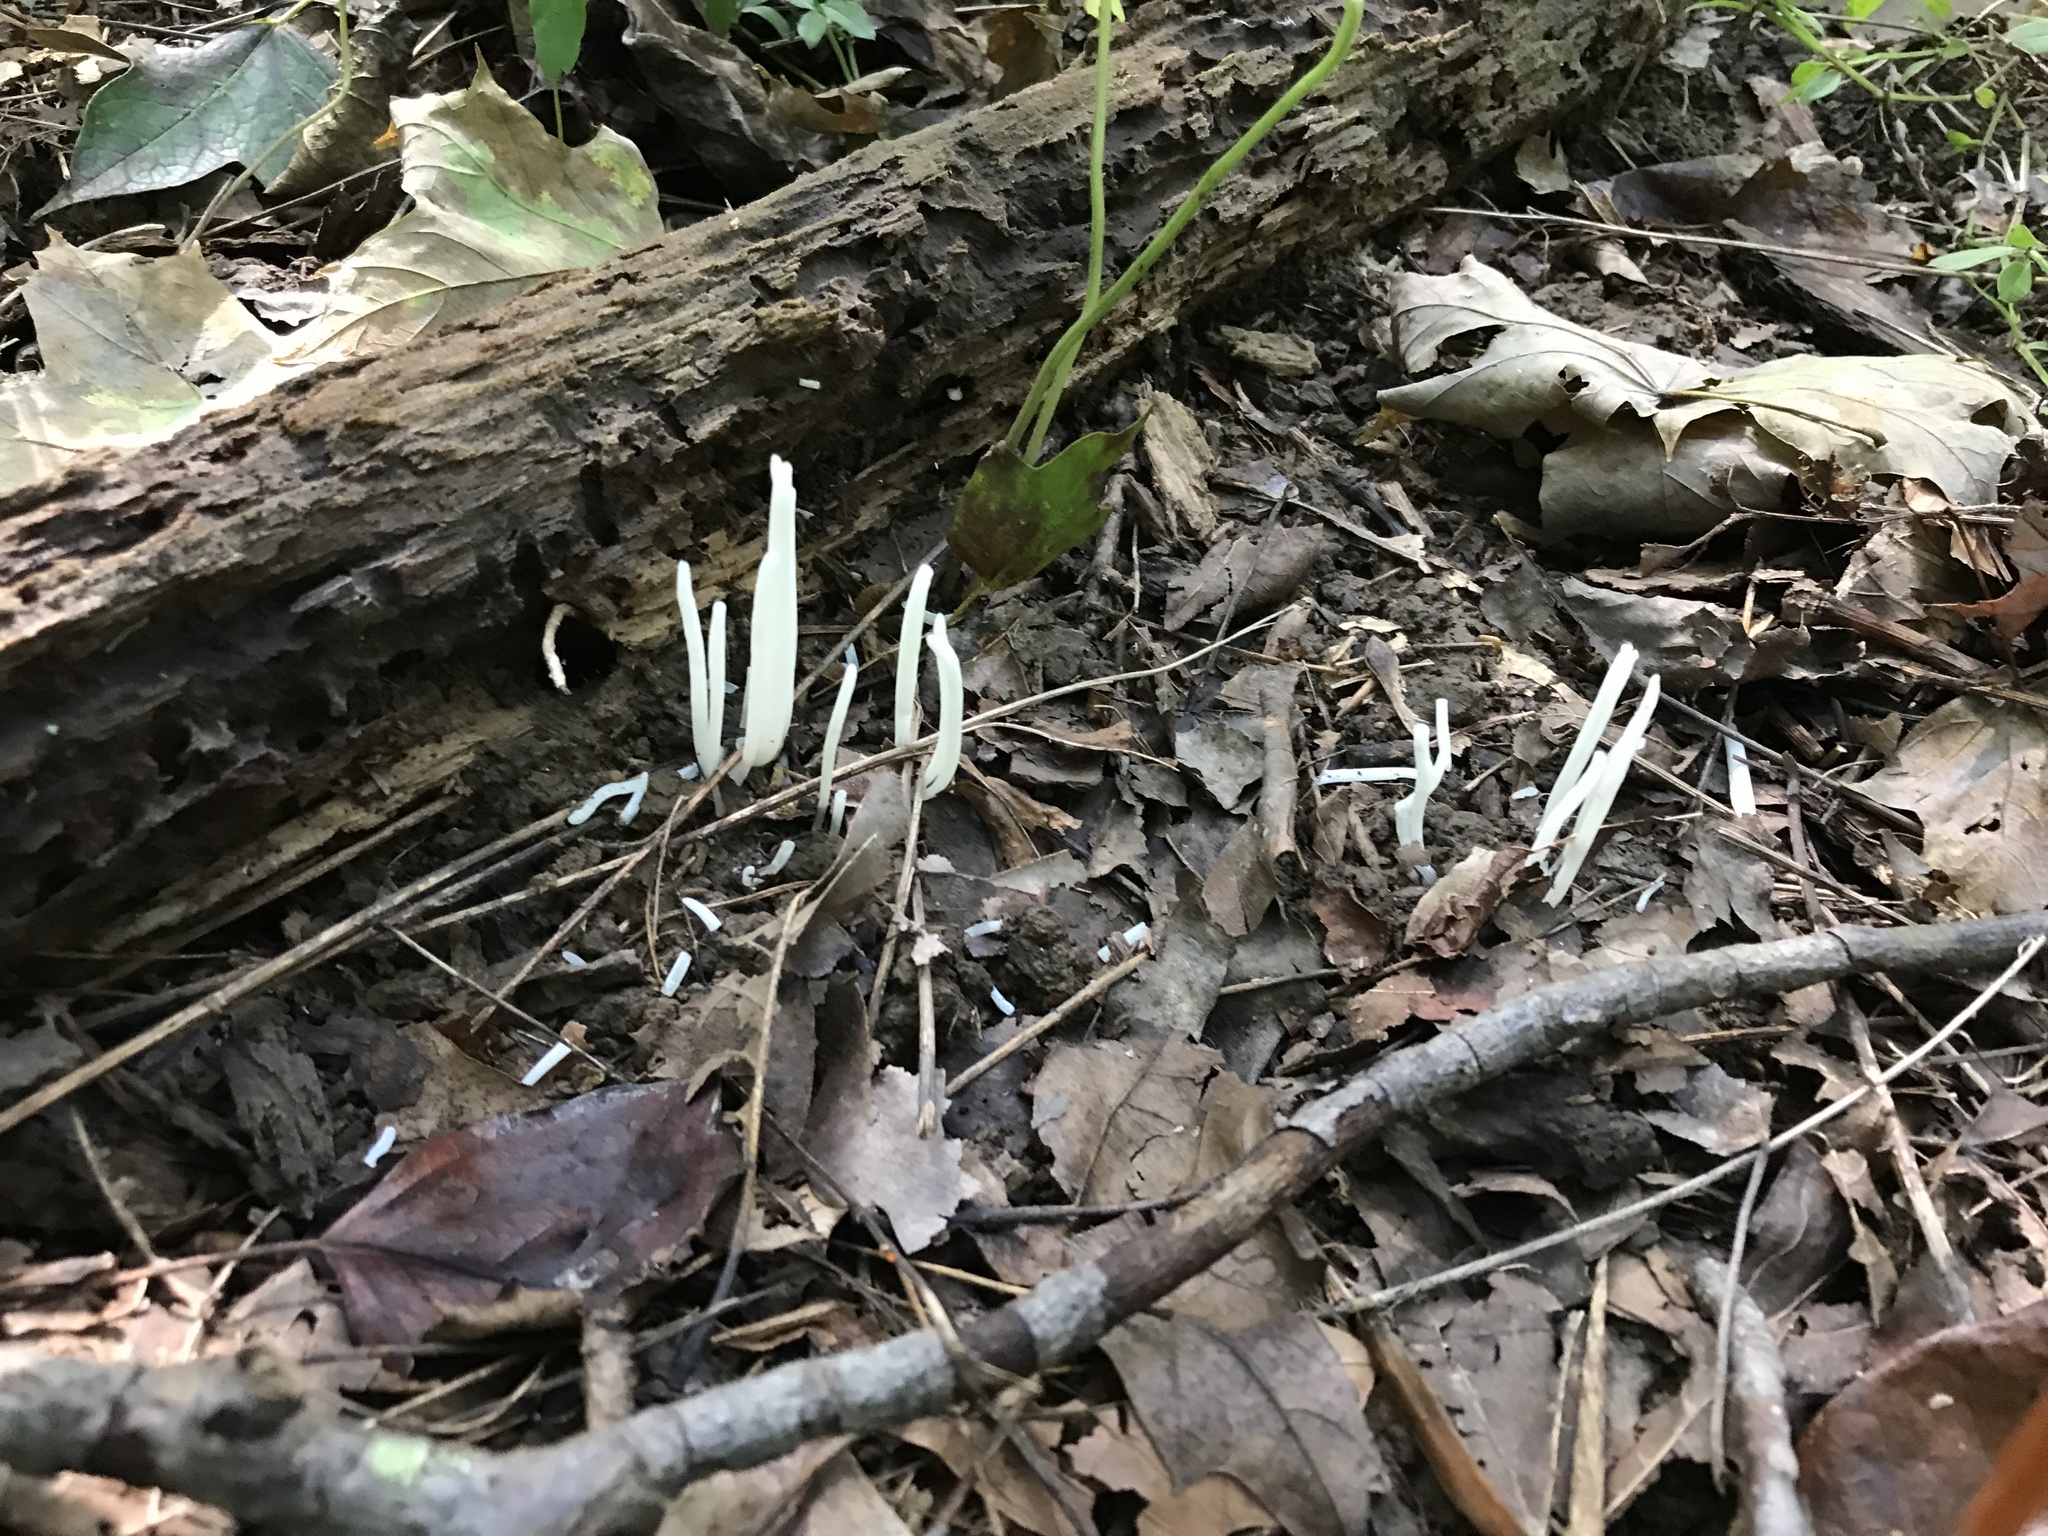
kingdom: Fungi
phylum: Basidiomycota
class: Agaricomycetes
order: Agaricales
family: Clavariaceae
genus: Clavaria
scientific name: Clavaria fragilis
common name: White spindles
